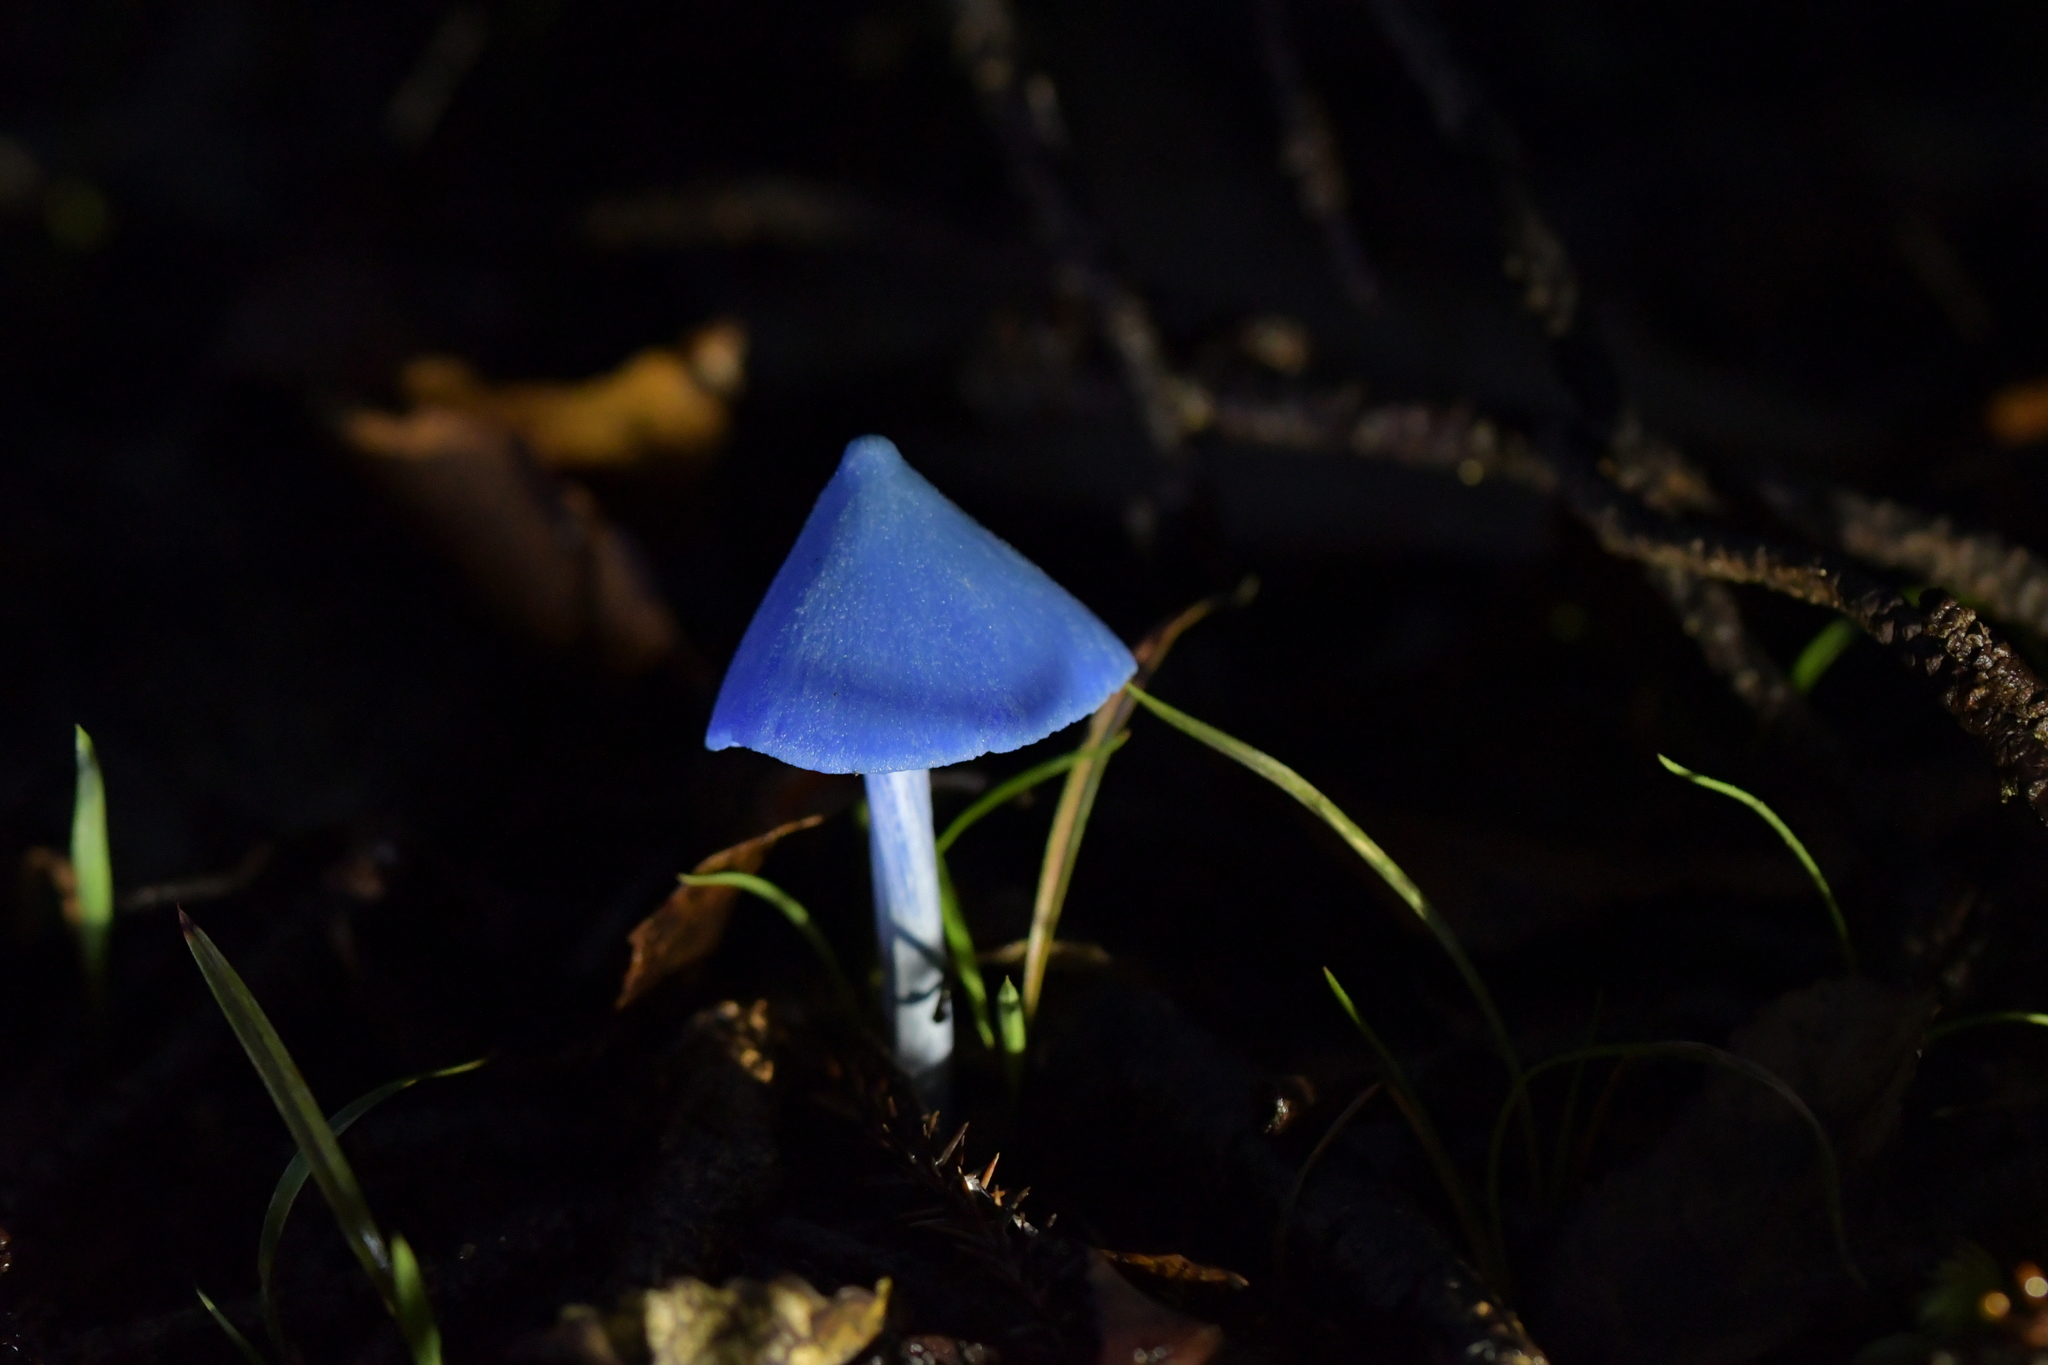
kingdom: Fungi
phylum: Basidiomycota
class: Agaricomycetes
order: Agaricales
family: Entolomataceae
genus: Entoloma
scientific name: Entoloma hochstetteri
